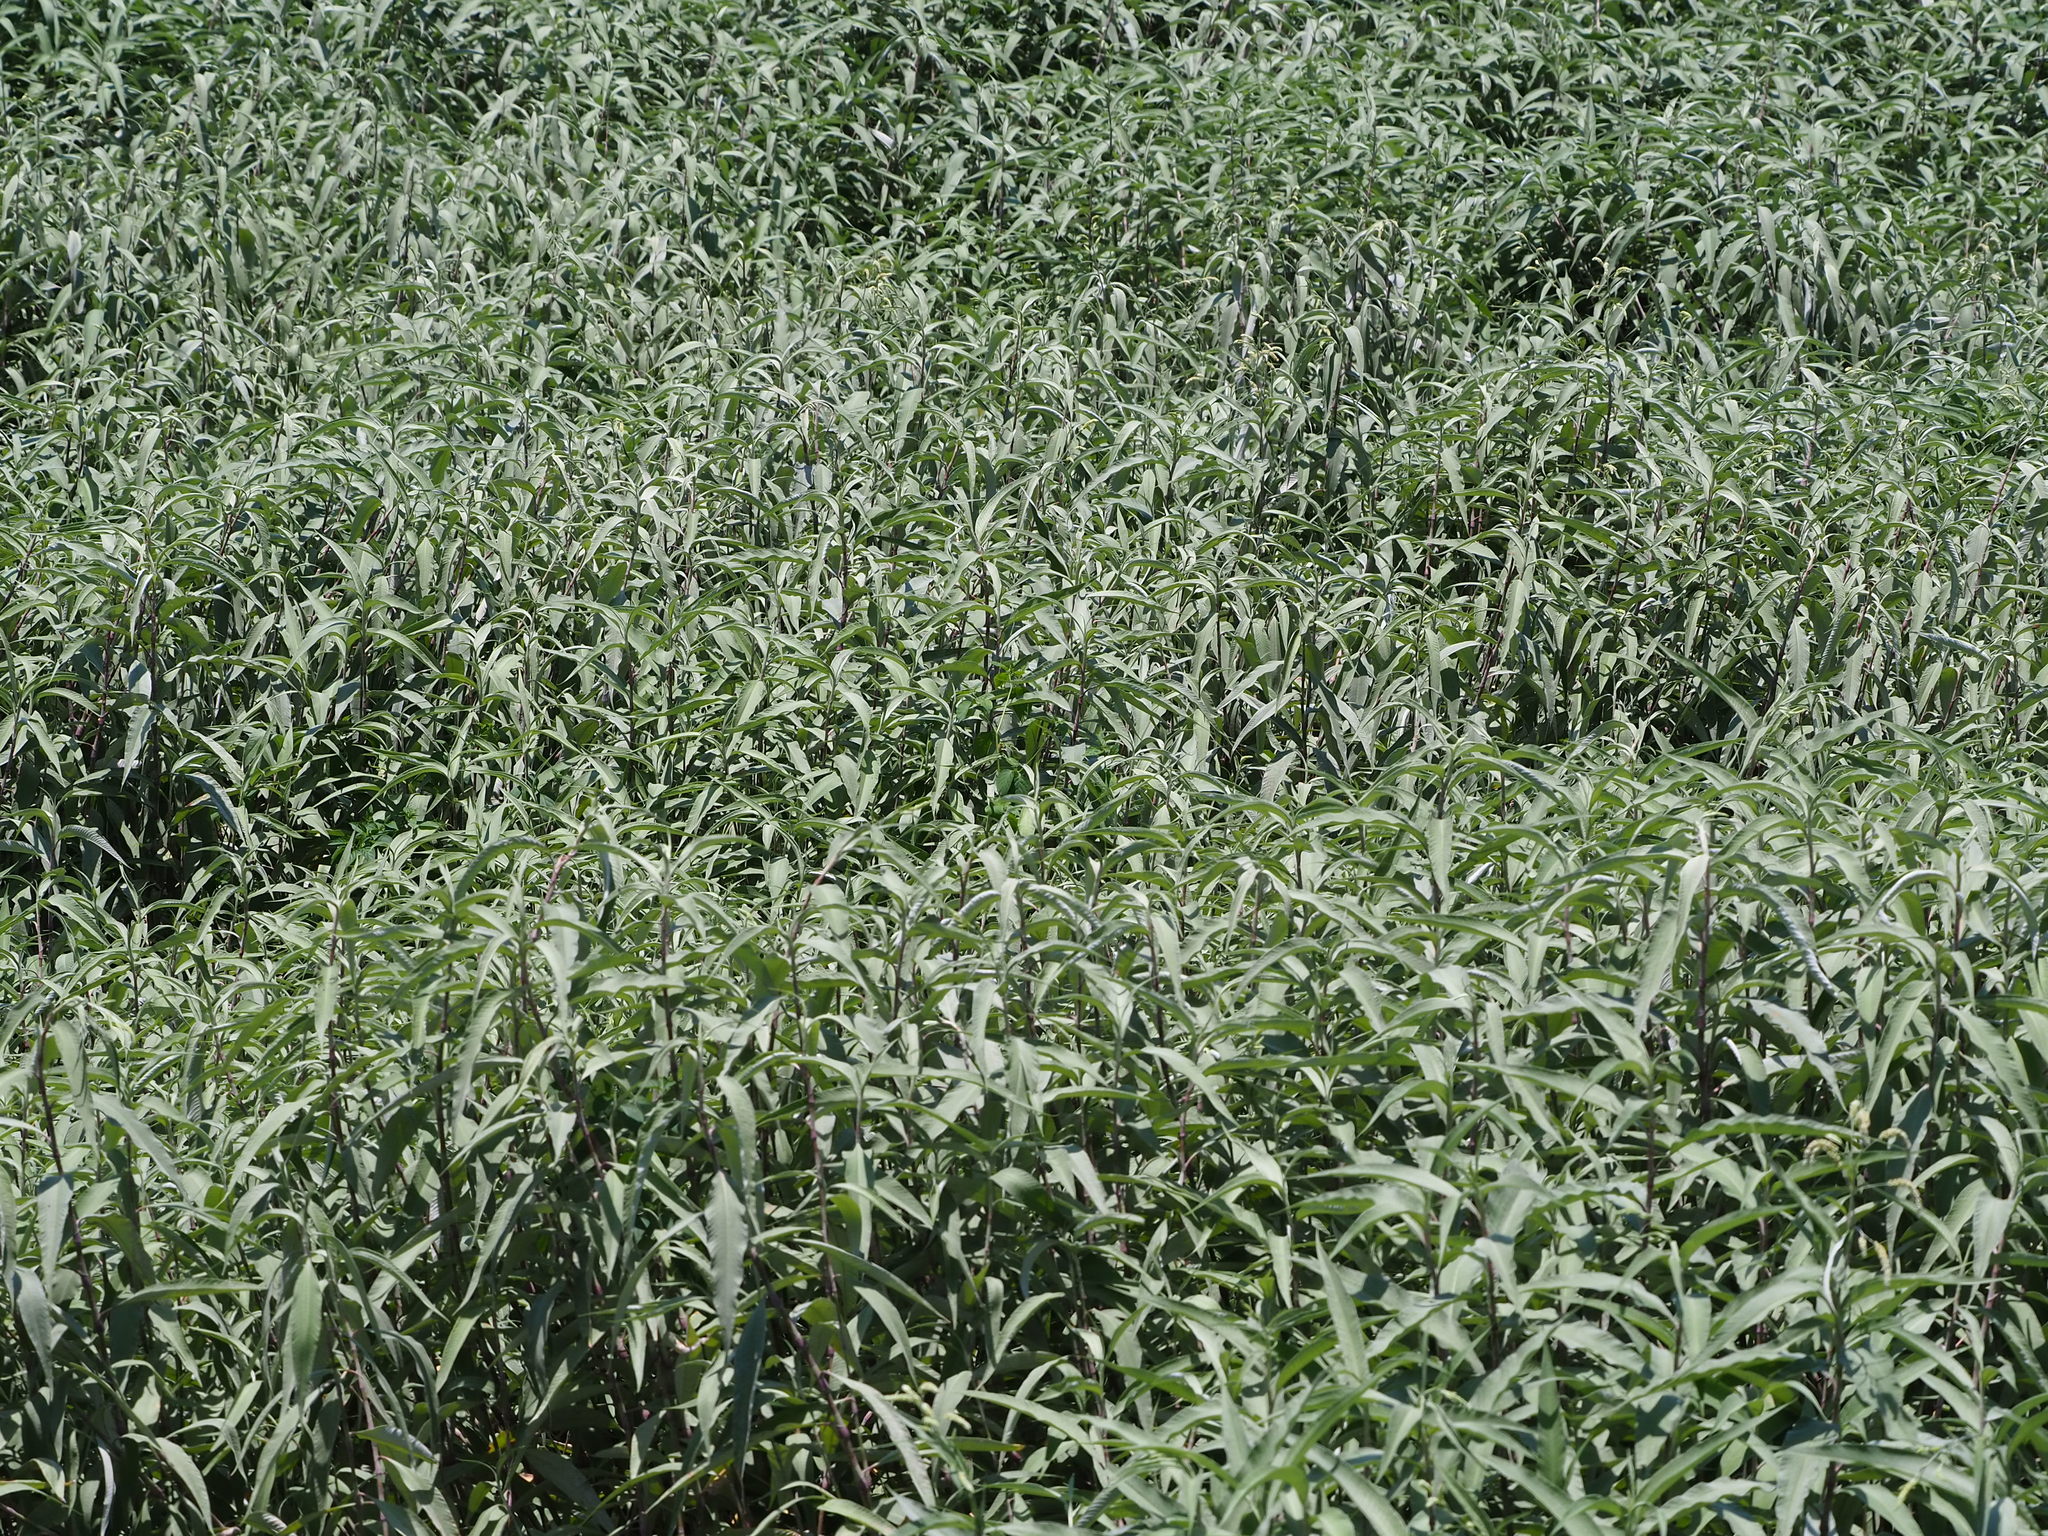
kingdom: Plantae
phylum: Tracheophyta
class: Magnoliopsida
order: Caryophyllales
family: Polygonaceae
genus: Persicaria
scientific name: Persicaria lanata
